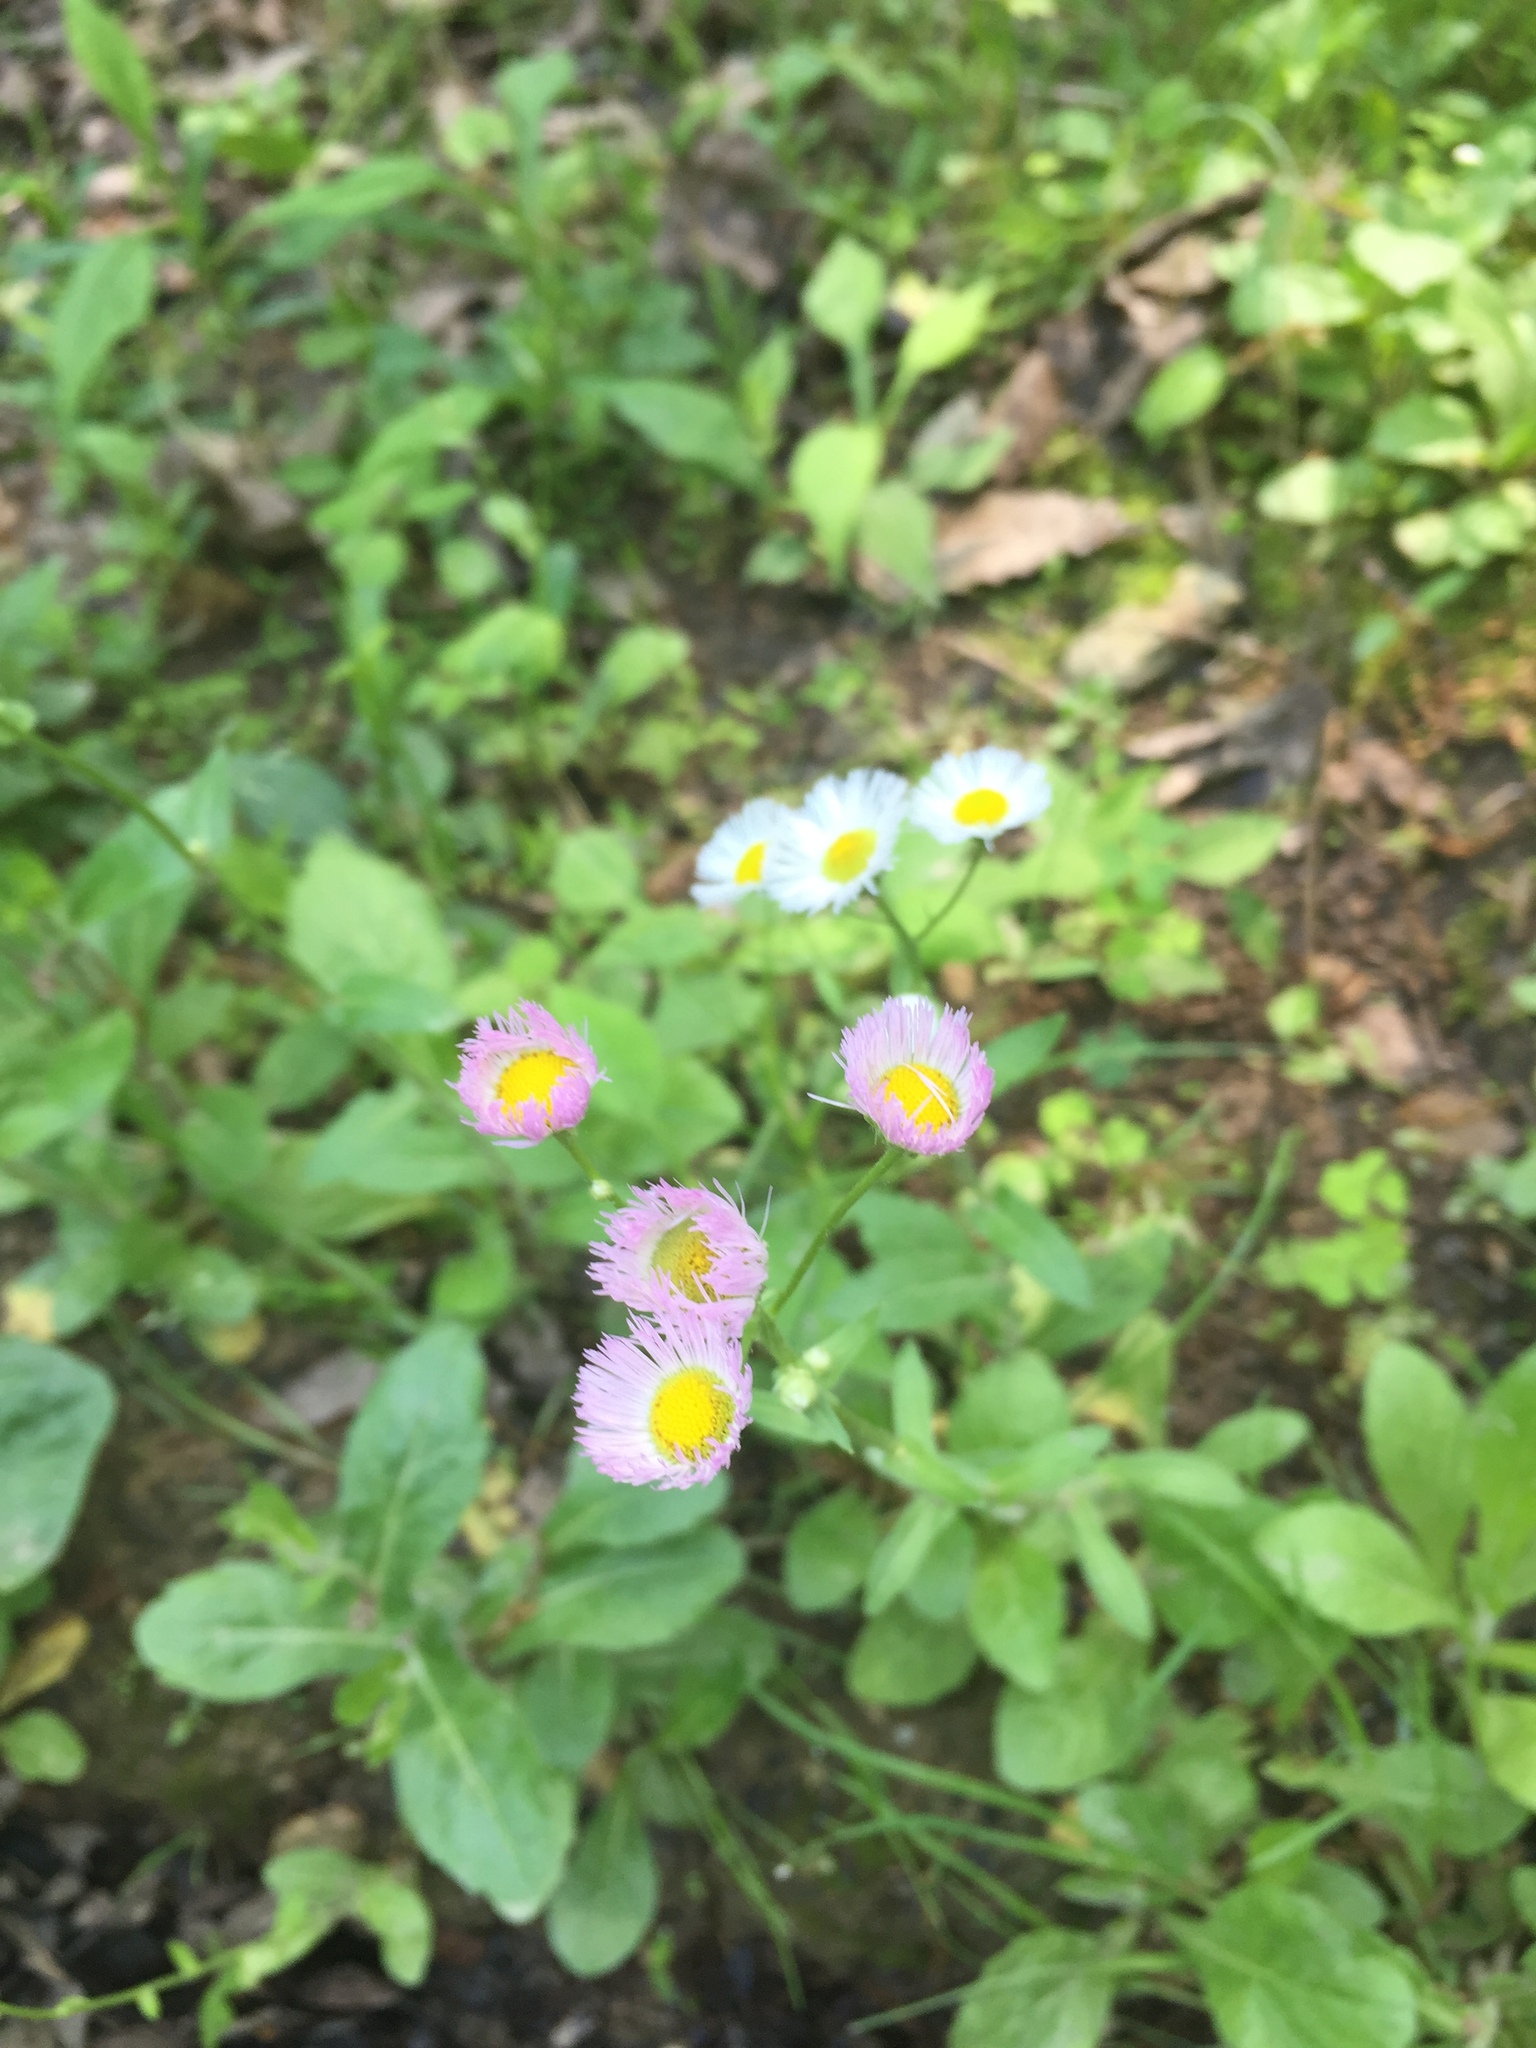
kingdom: Plantae
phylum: Tracheophyta
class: Magnoliopsida
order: Asterales
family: Asteraceae
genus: Erigeron
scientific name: Erigeron philadelphicus
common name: Robin's-plantain
